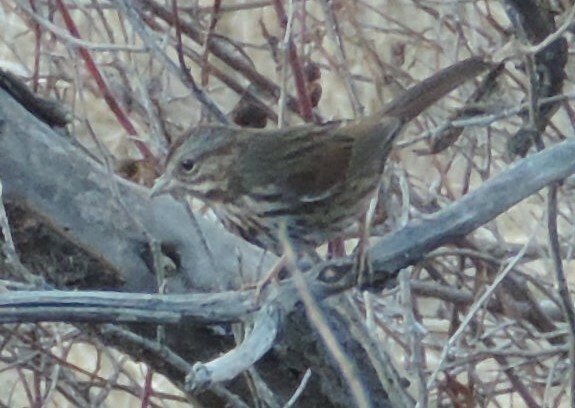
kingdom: Animalia
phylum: Chordata
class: Aves
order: Passeriformes
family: Passerellidae
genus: Melospiza
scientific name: Melospiza melodia
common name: Song sparrow
